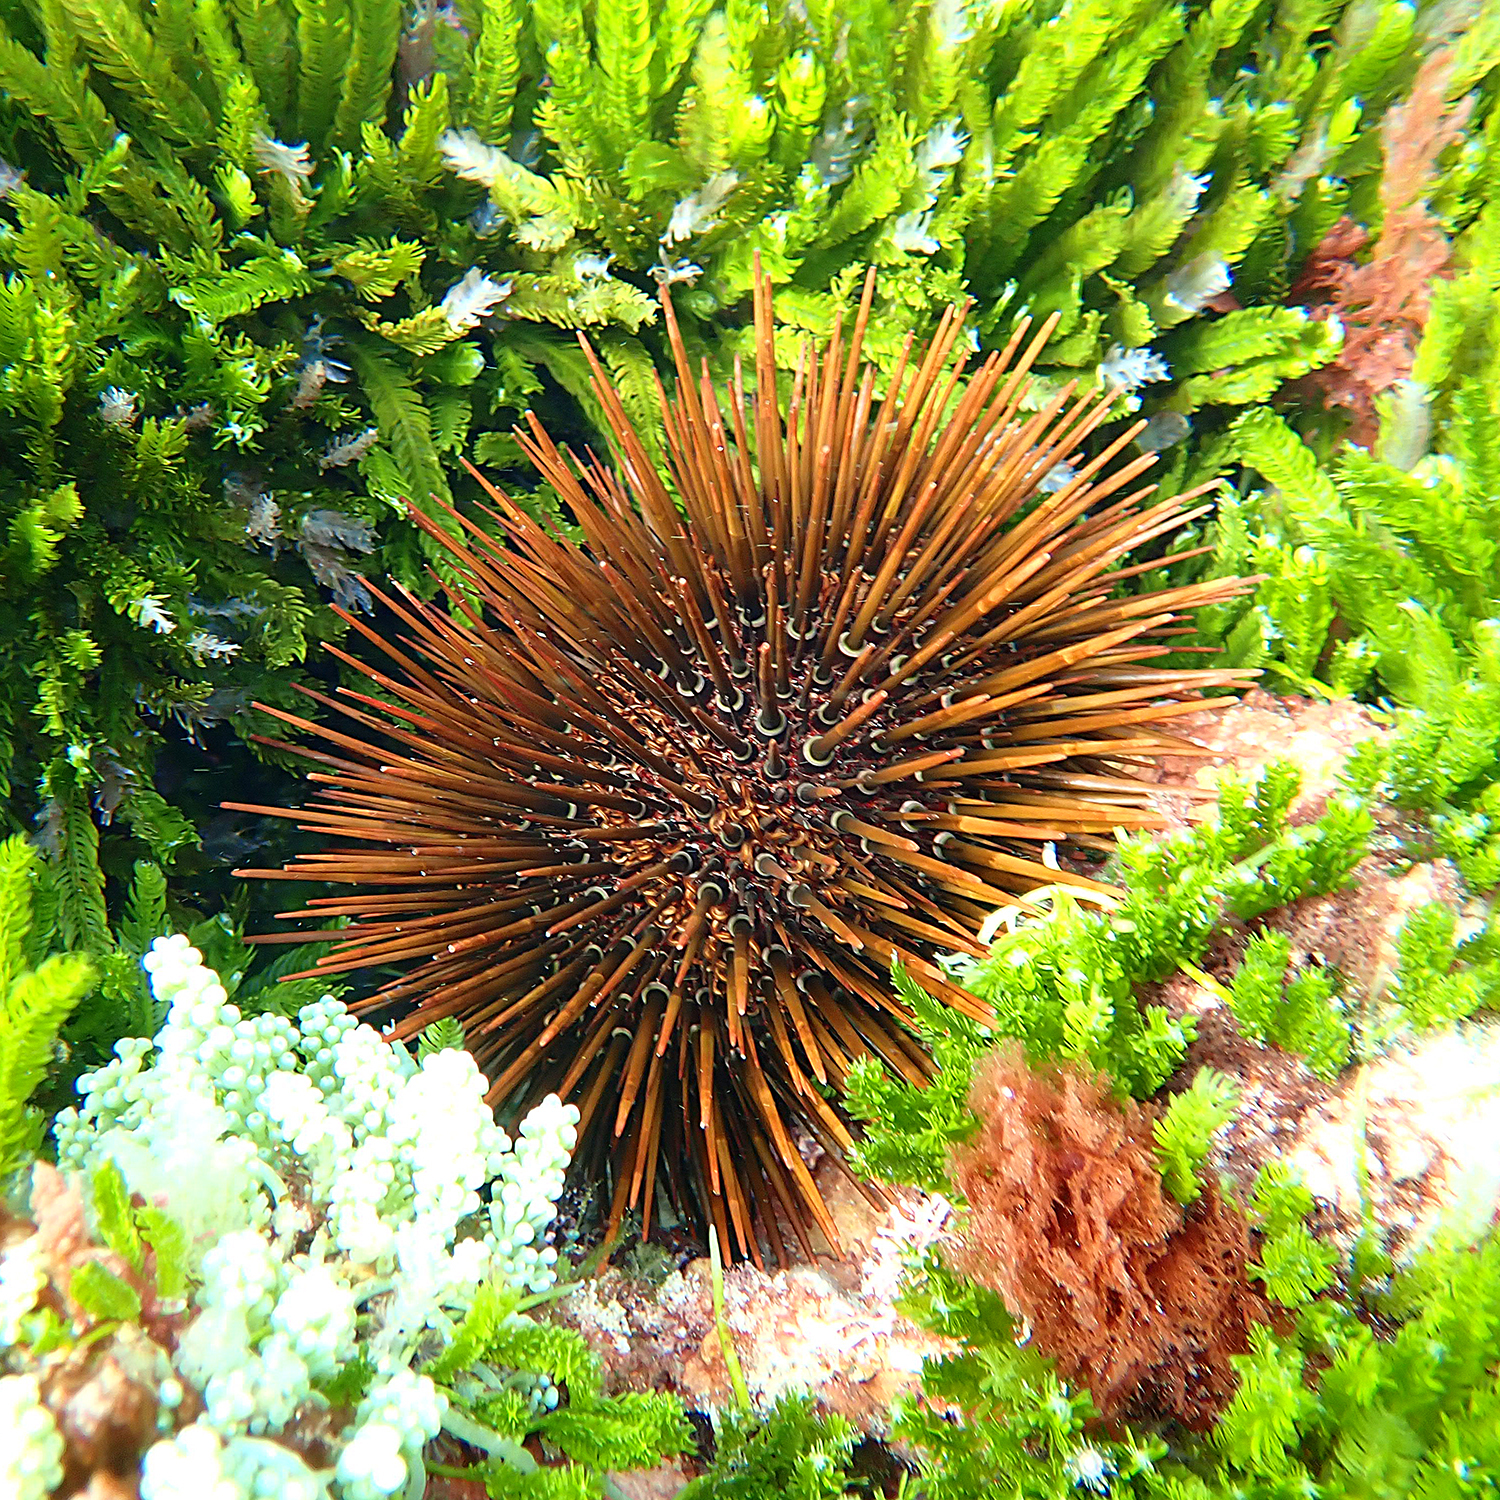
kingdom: Animalia
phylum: Echinodermata
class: Echinoidea
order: Camarodonta
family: Echinometridae
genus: Heliocidaris
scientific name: Heliocidaris tuberculata
